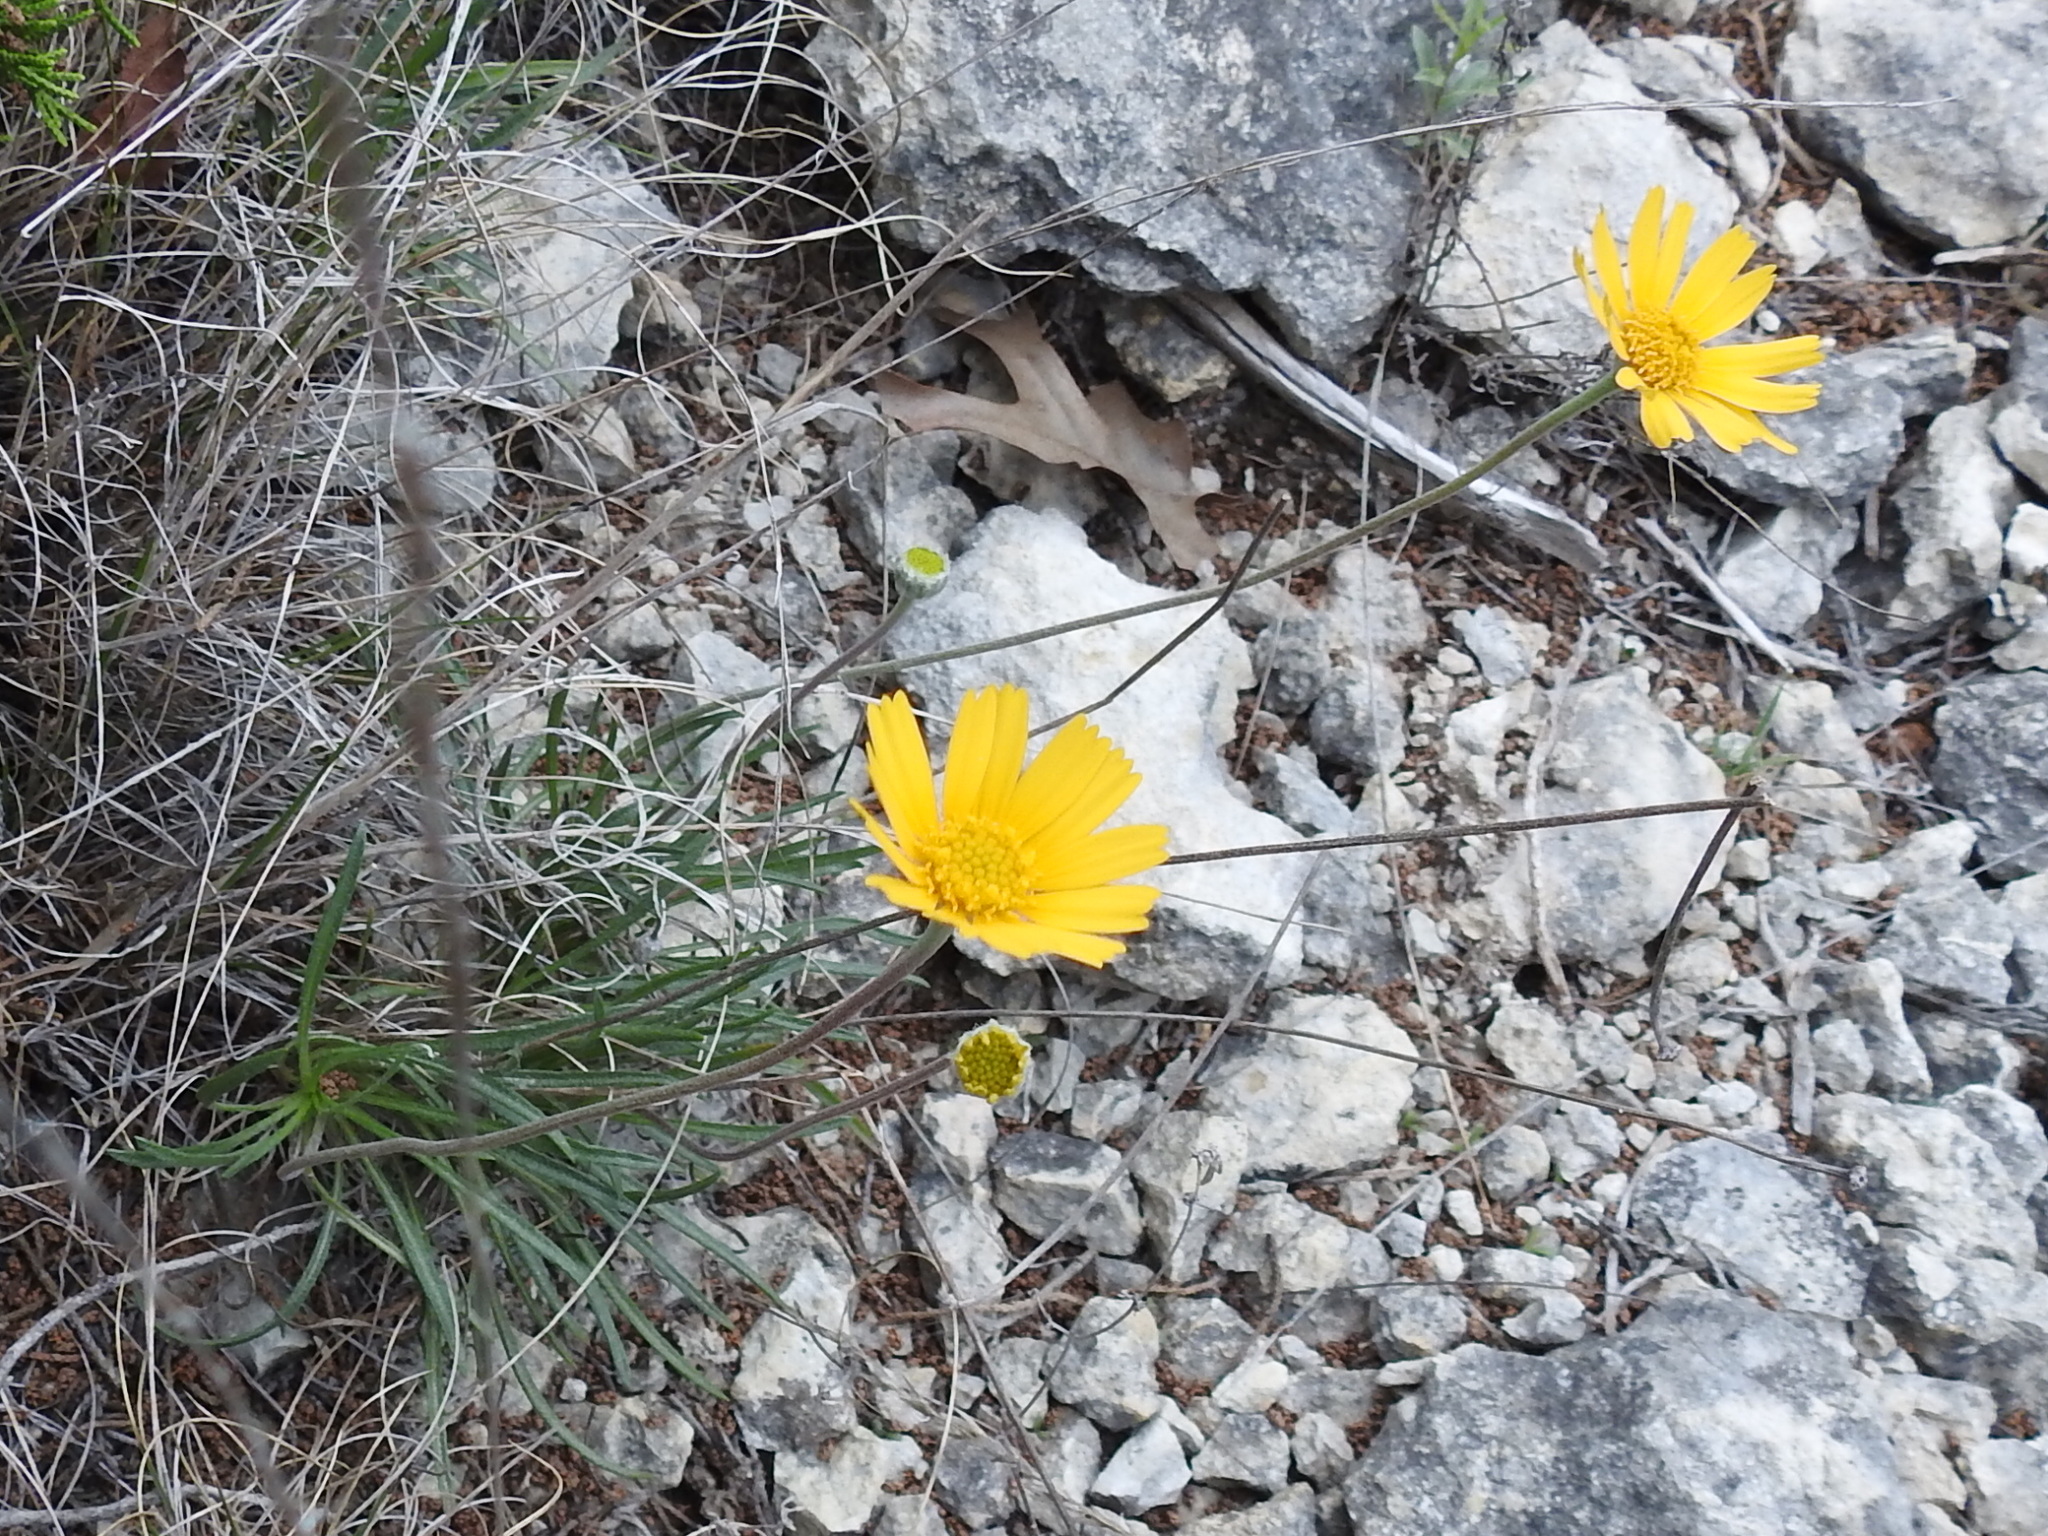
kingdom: Plantae
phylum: Tracheophyta
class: Magnoliopsida
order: Asterales
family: Asteraceae
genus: Tetraneuris
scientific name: Tetraneuris scaposa
